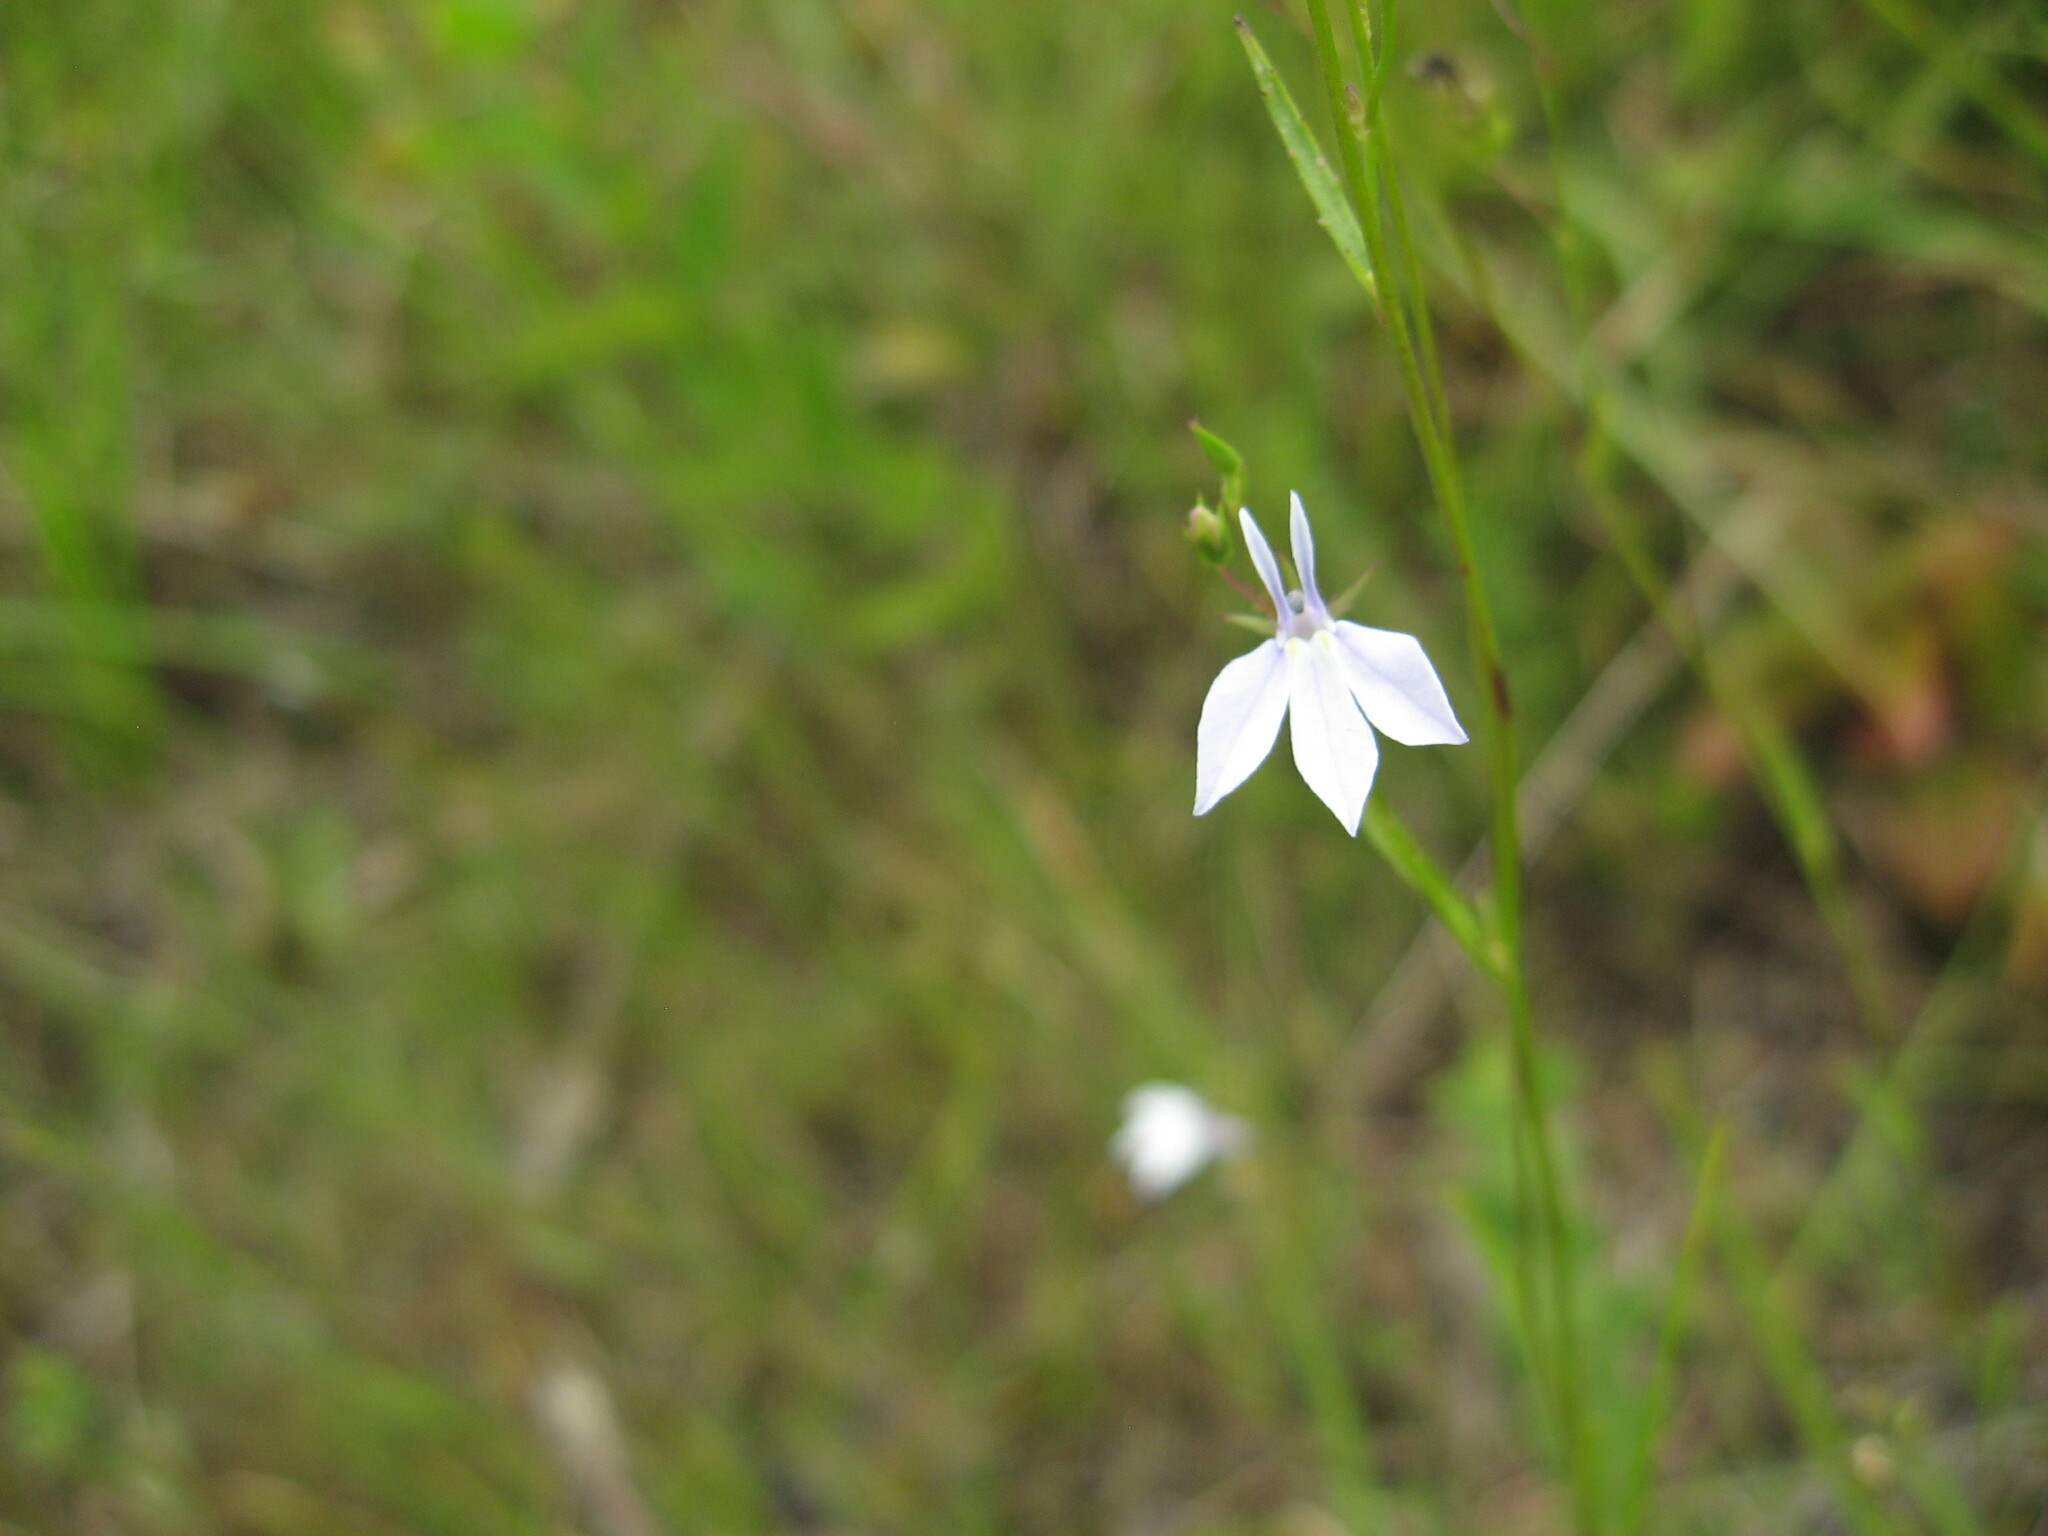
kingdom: Plantae
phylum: Tracheophyta
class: Magnoliopsida
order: Asterales
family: Campanulaceae
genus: Lobelia
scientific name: Lobelia nuttallii
